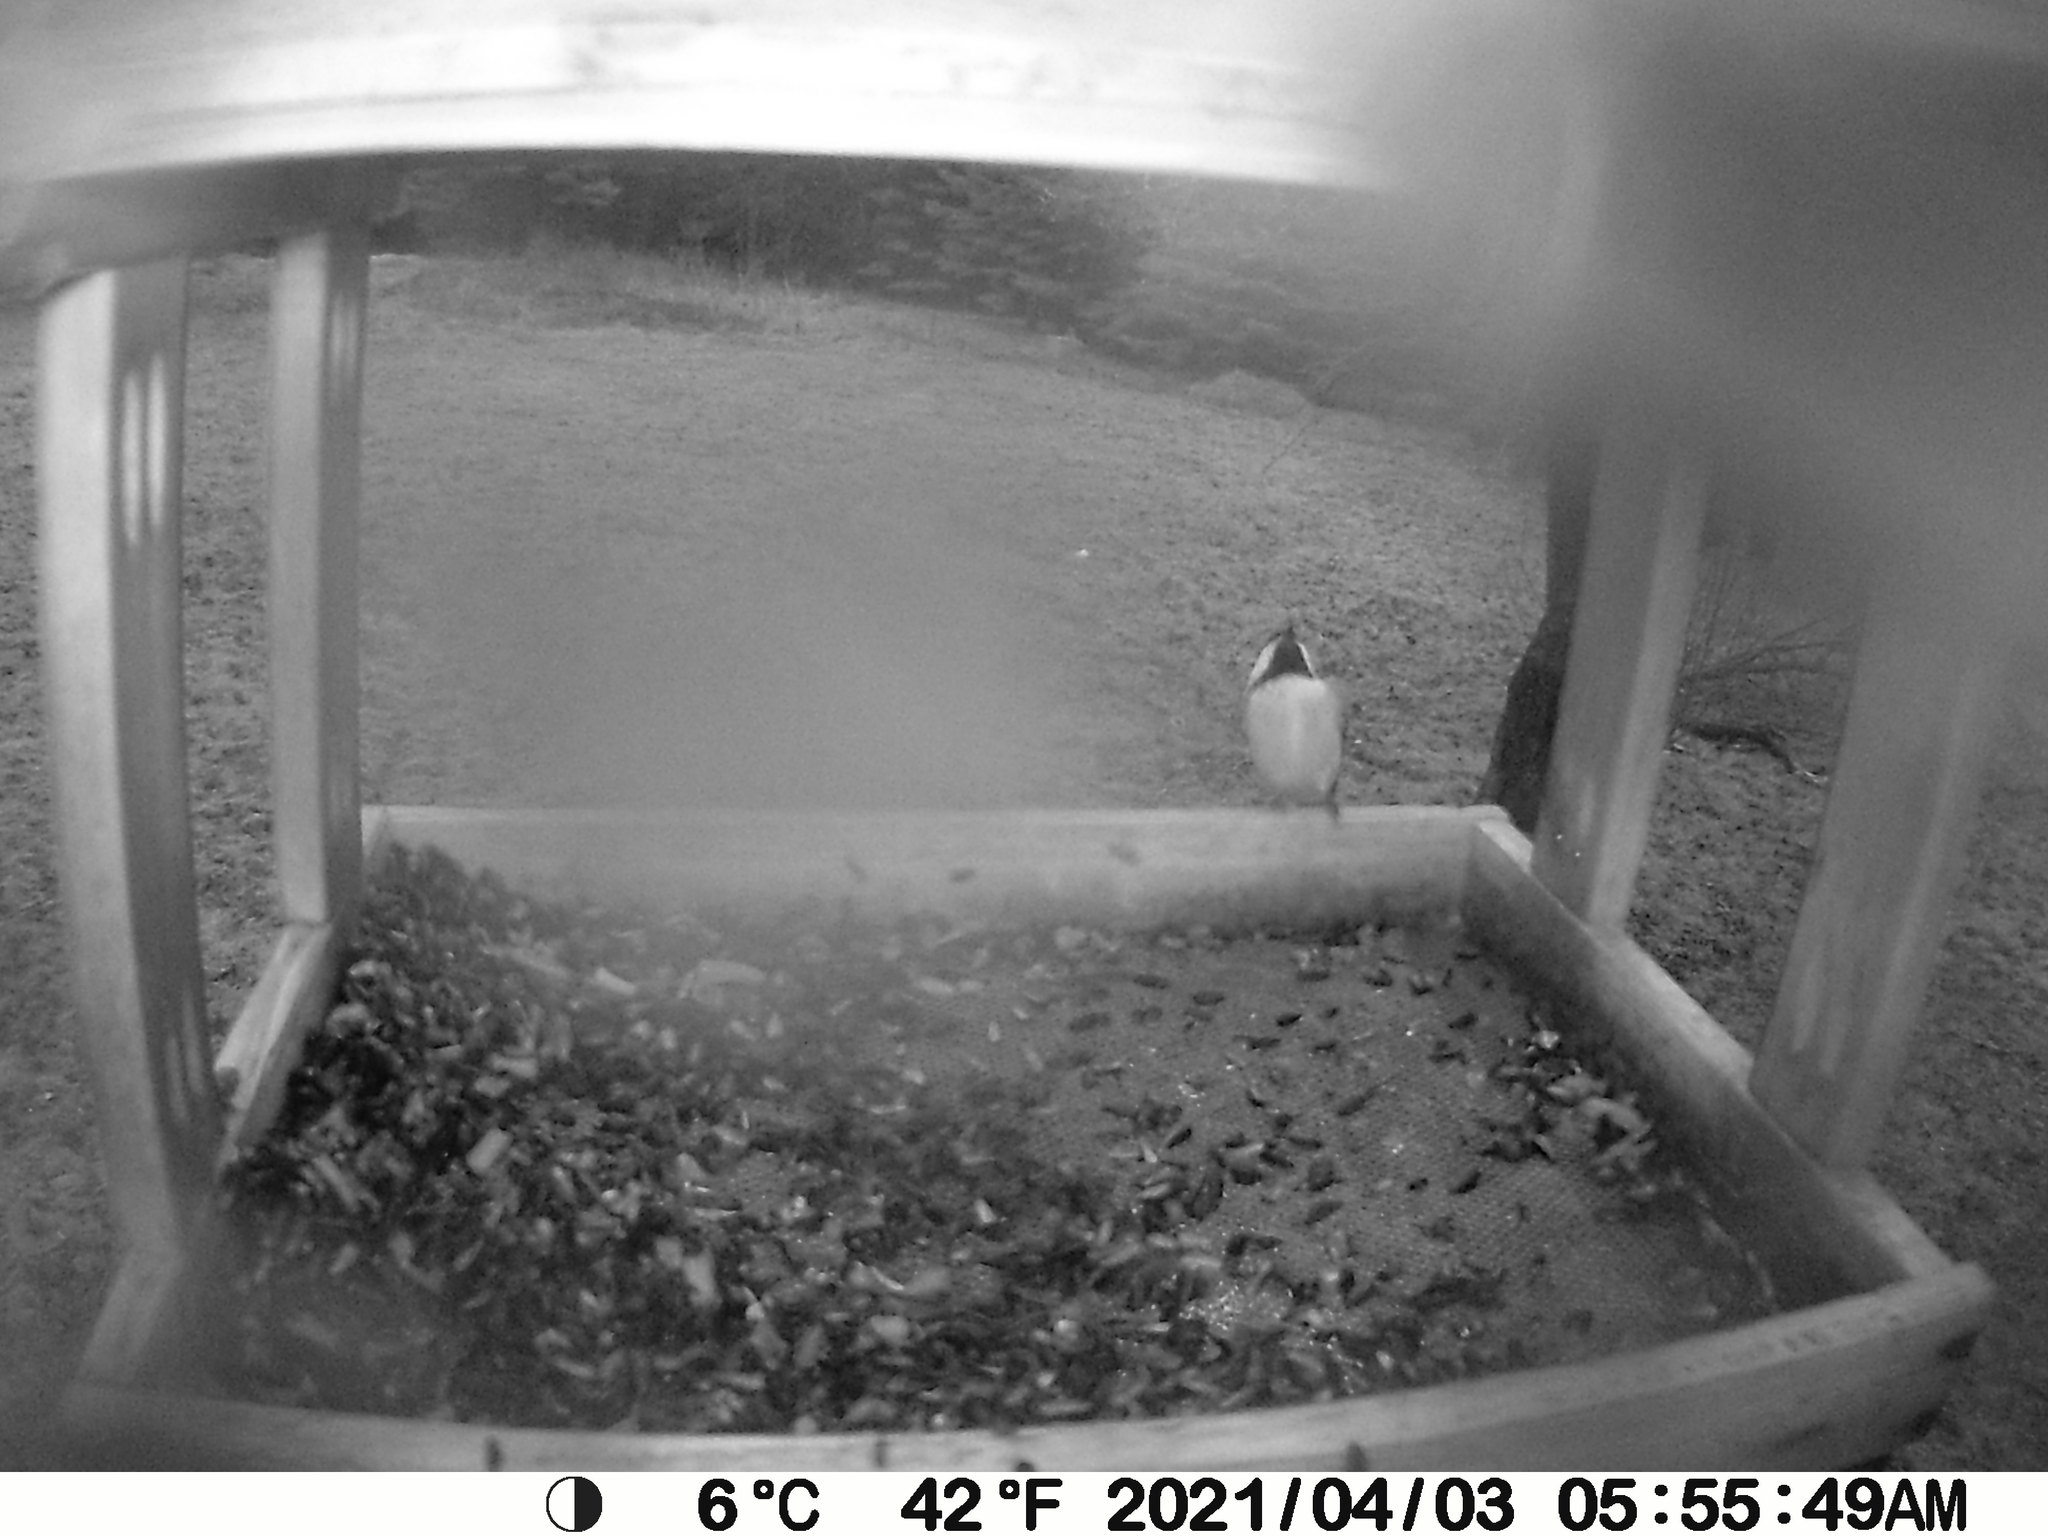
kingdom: Animalia
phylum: Chordata
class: Aves
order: Passeriformes
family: Paridae
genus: Poecile
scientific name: Poecile atricapillus
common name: Black-capped chickadee
